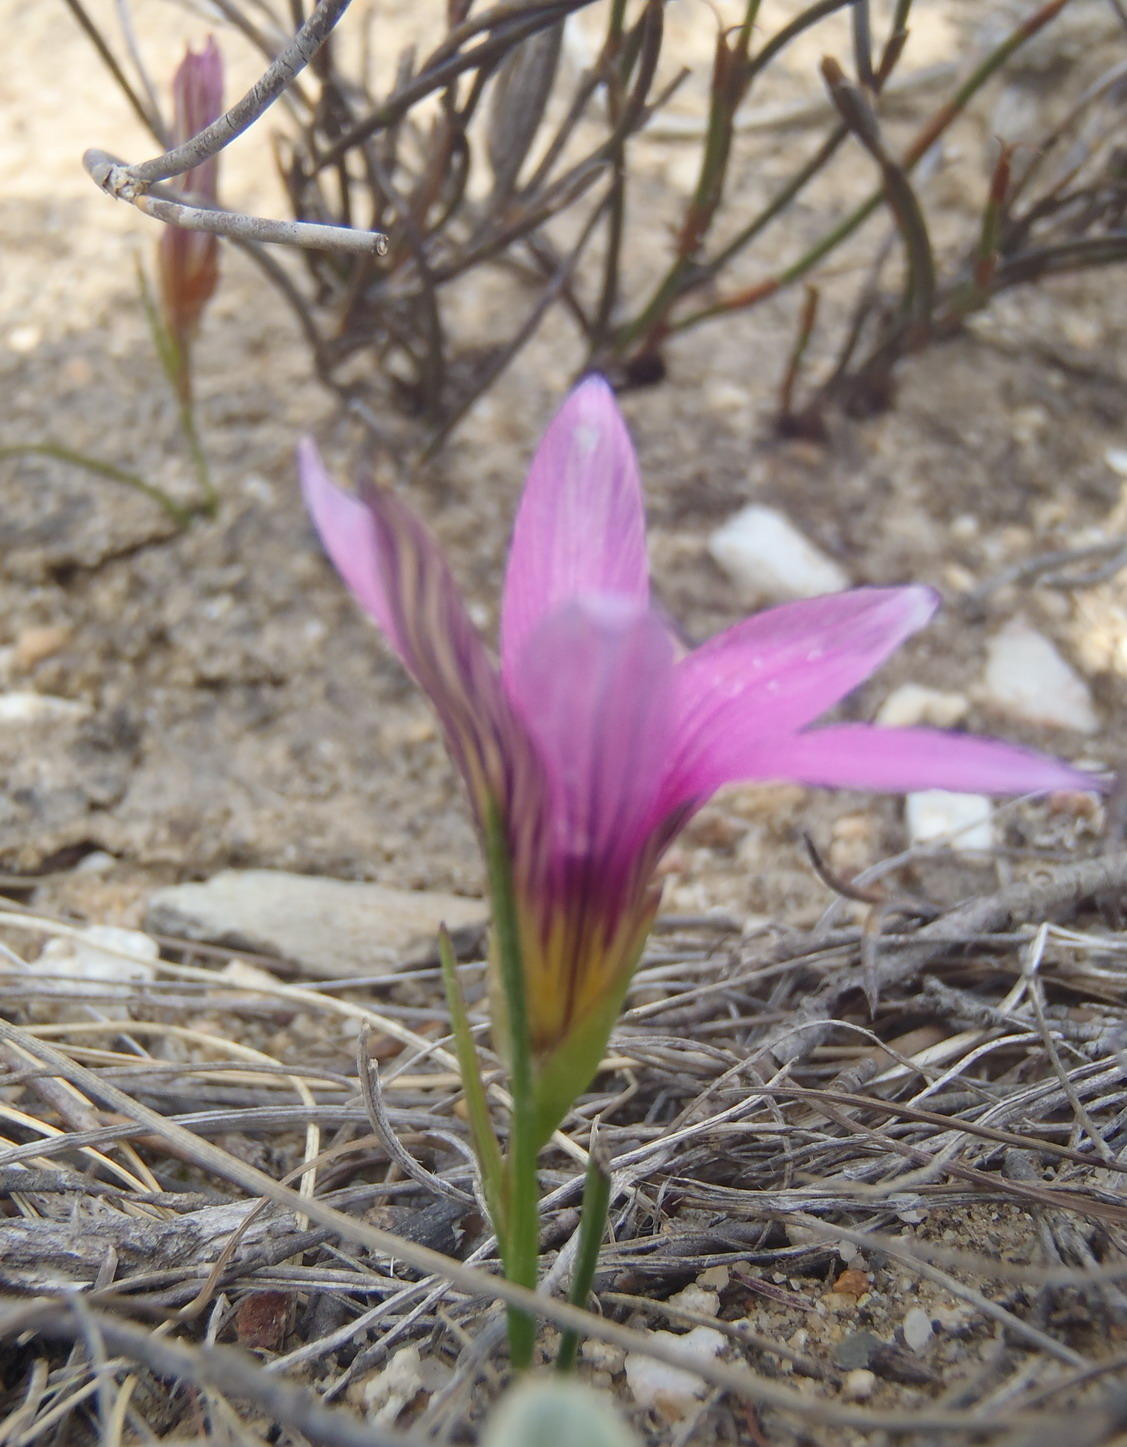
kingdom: Plantae
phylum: Tracheophyta
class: Liliopsida
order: Asparagales
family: Iridaceae
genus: Romulea
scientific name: Romulea fibrosa
